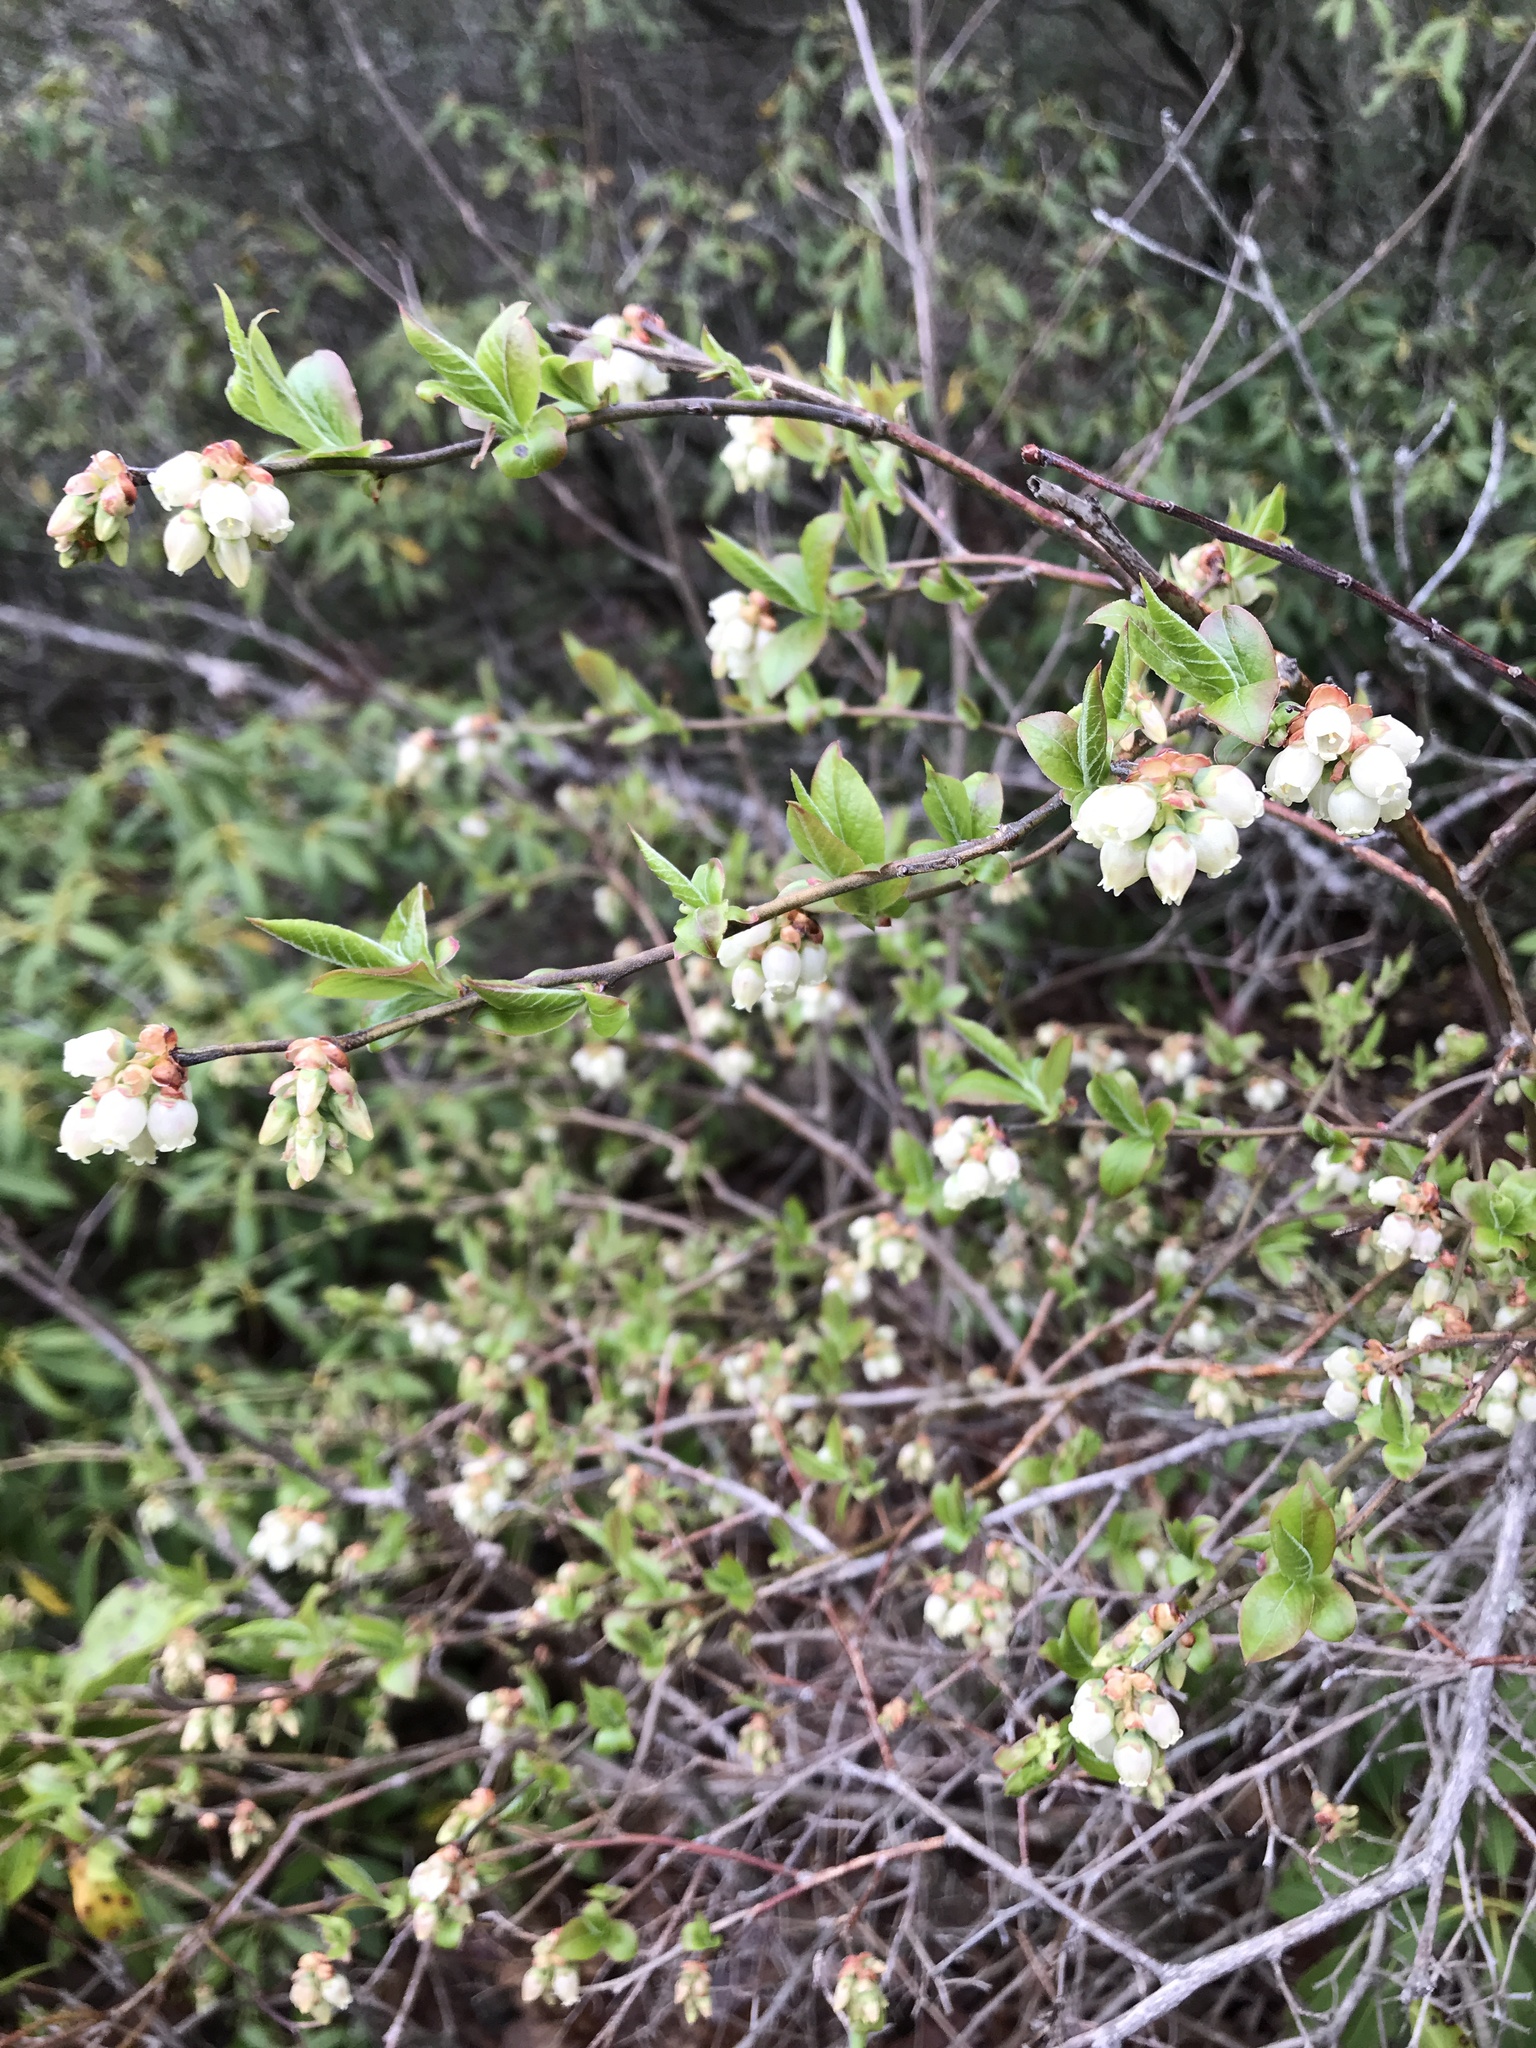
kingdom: Plantae
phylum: Tracheophyta
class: Magnoliopsida
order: Ericales
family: Ericaceae
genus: Vaccinium
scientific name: Vaccinium corymbosum
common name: Blueberry
